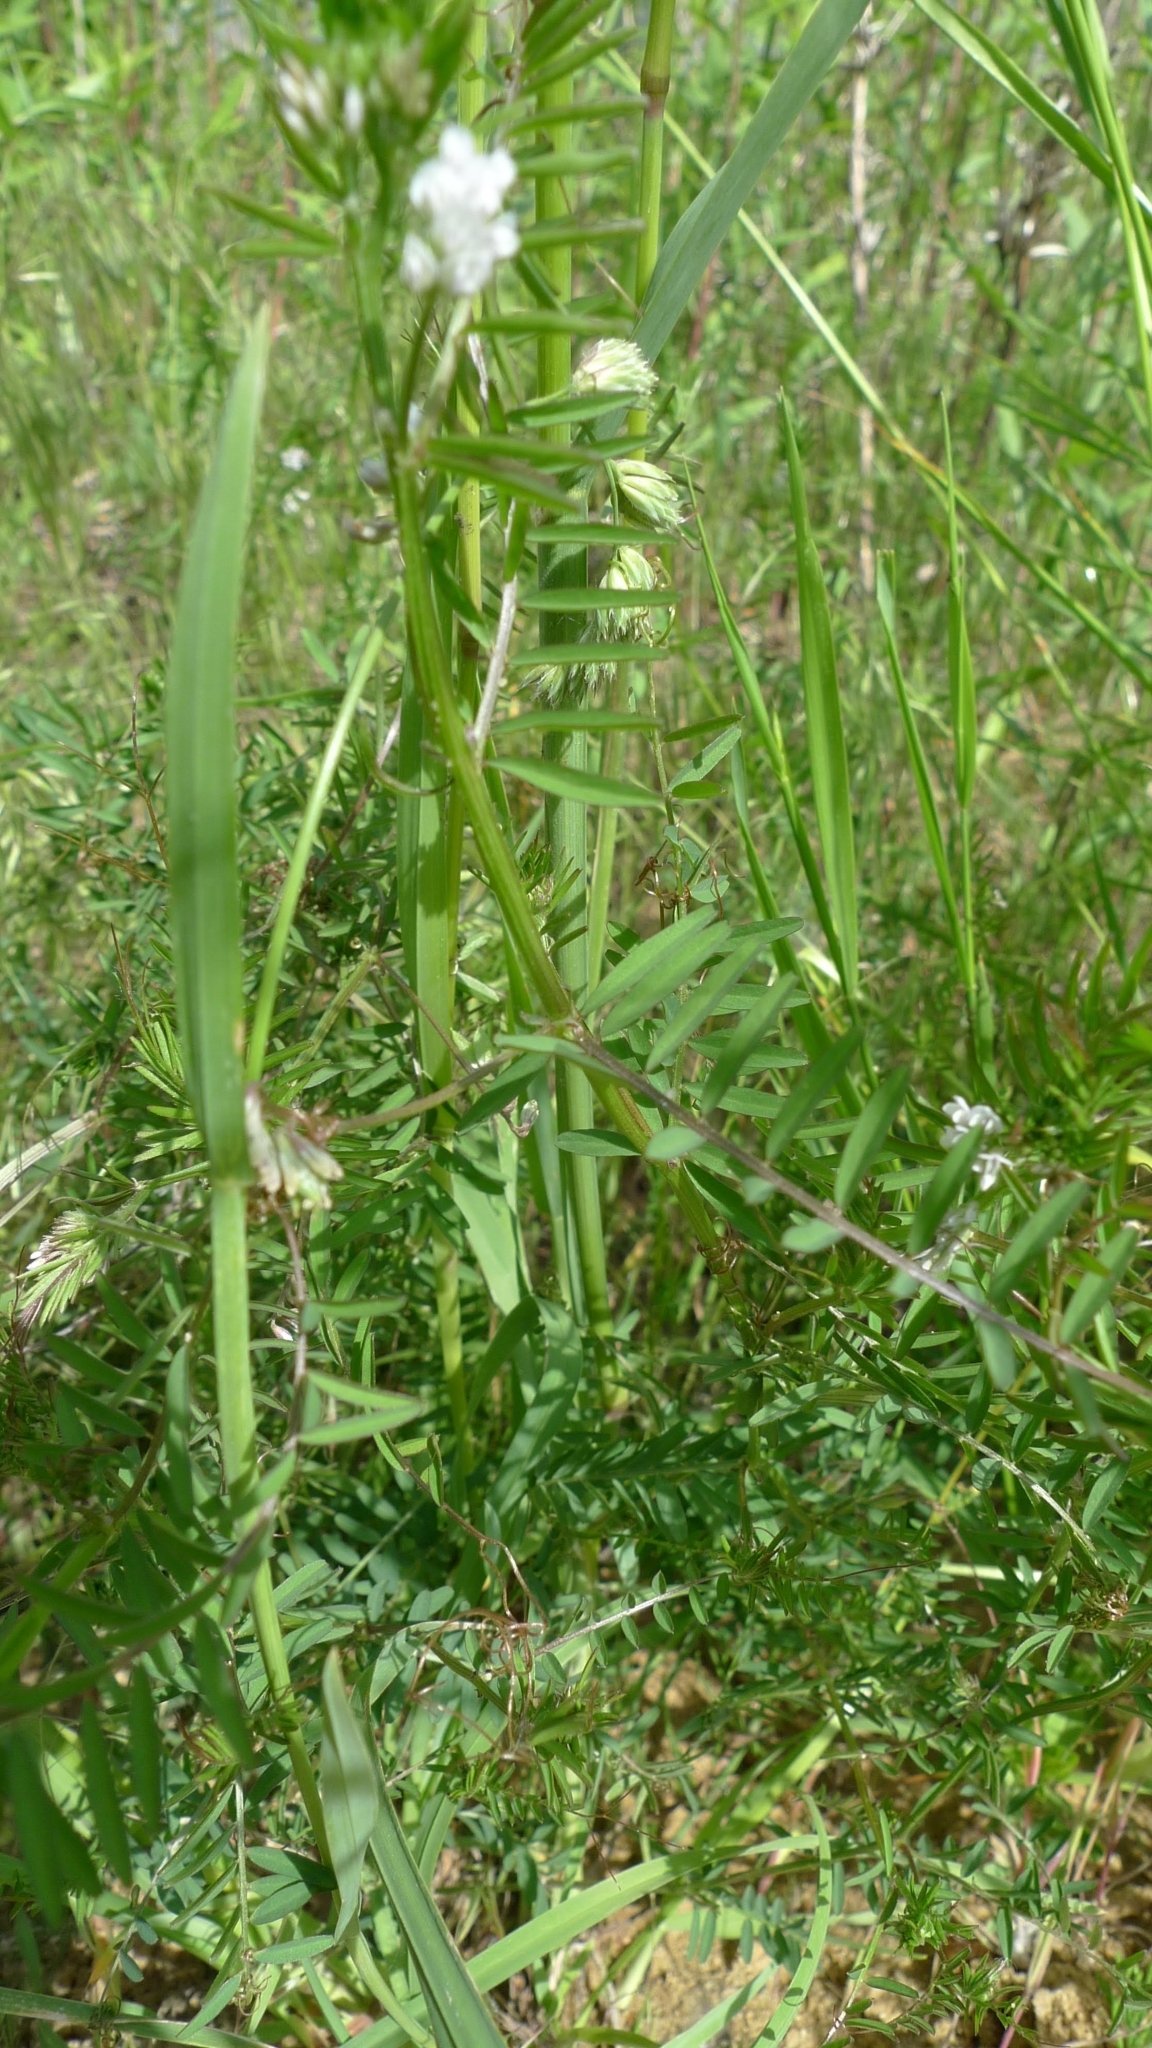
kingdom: Plantae
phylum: Tracheophyta
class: Magnoliopsida
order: Fabales
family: Fabaceae
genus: Vicia
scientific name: Vicia hirsuta
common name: Tiny vetch
